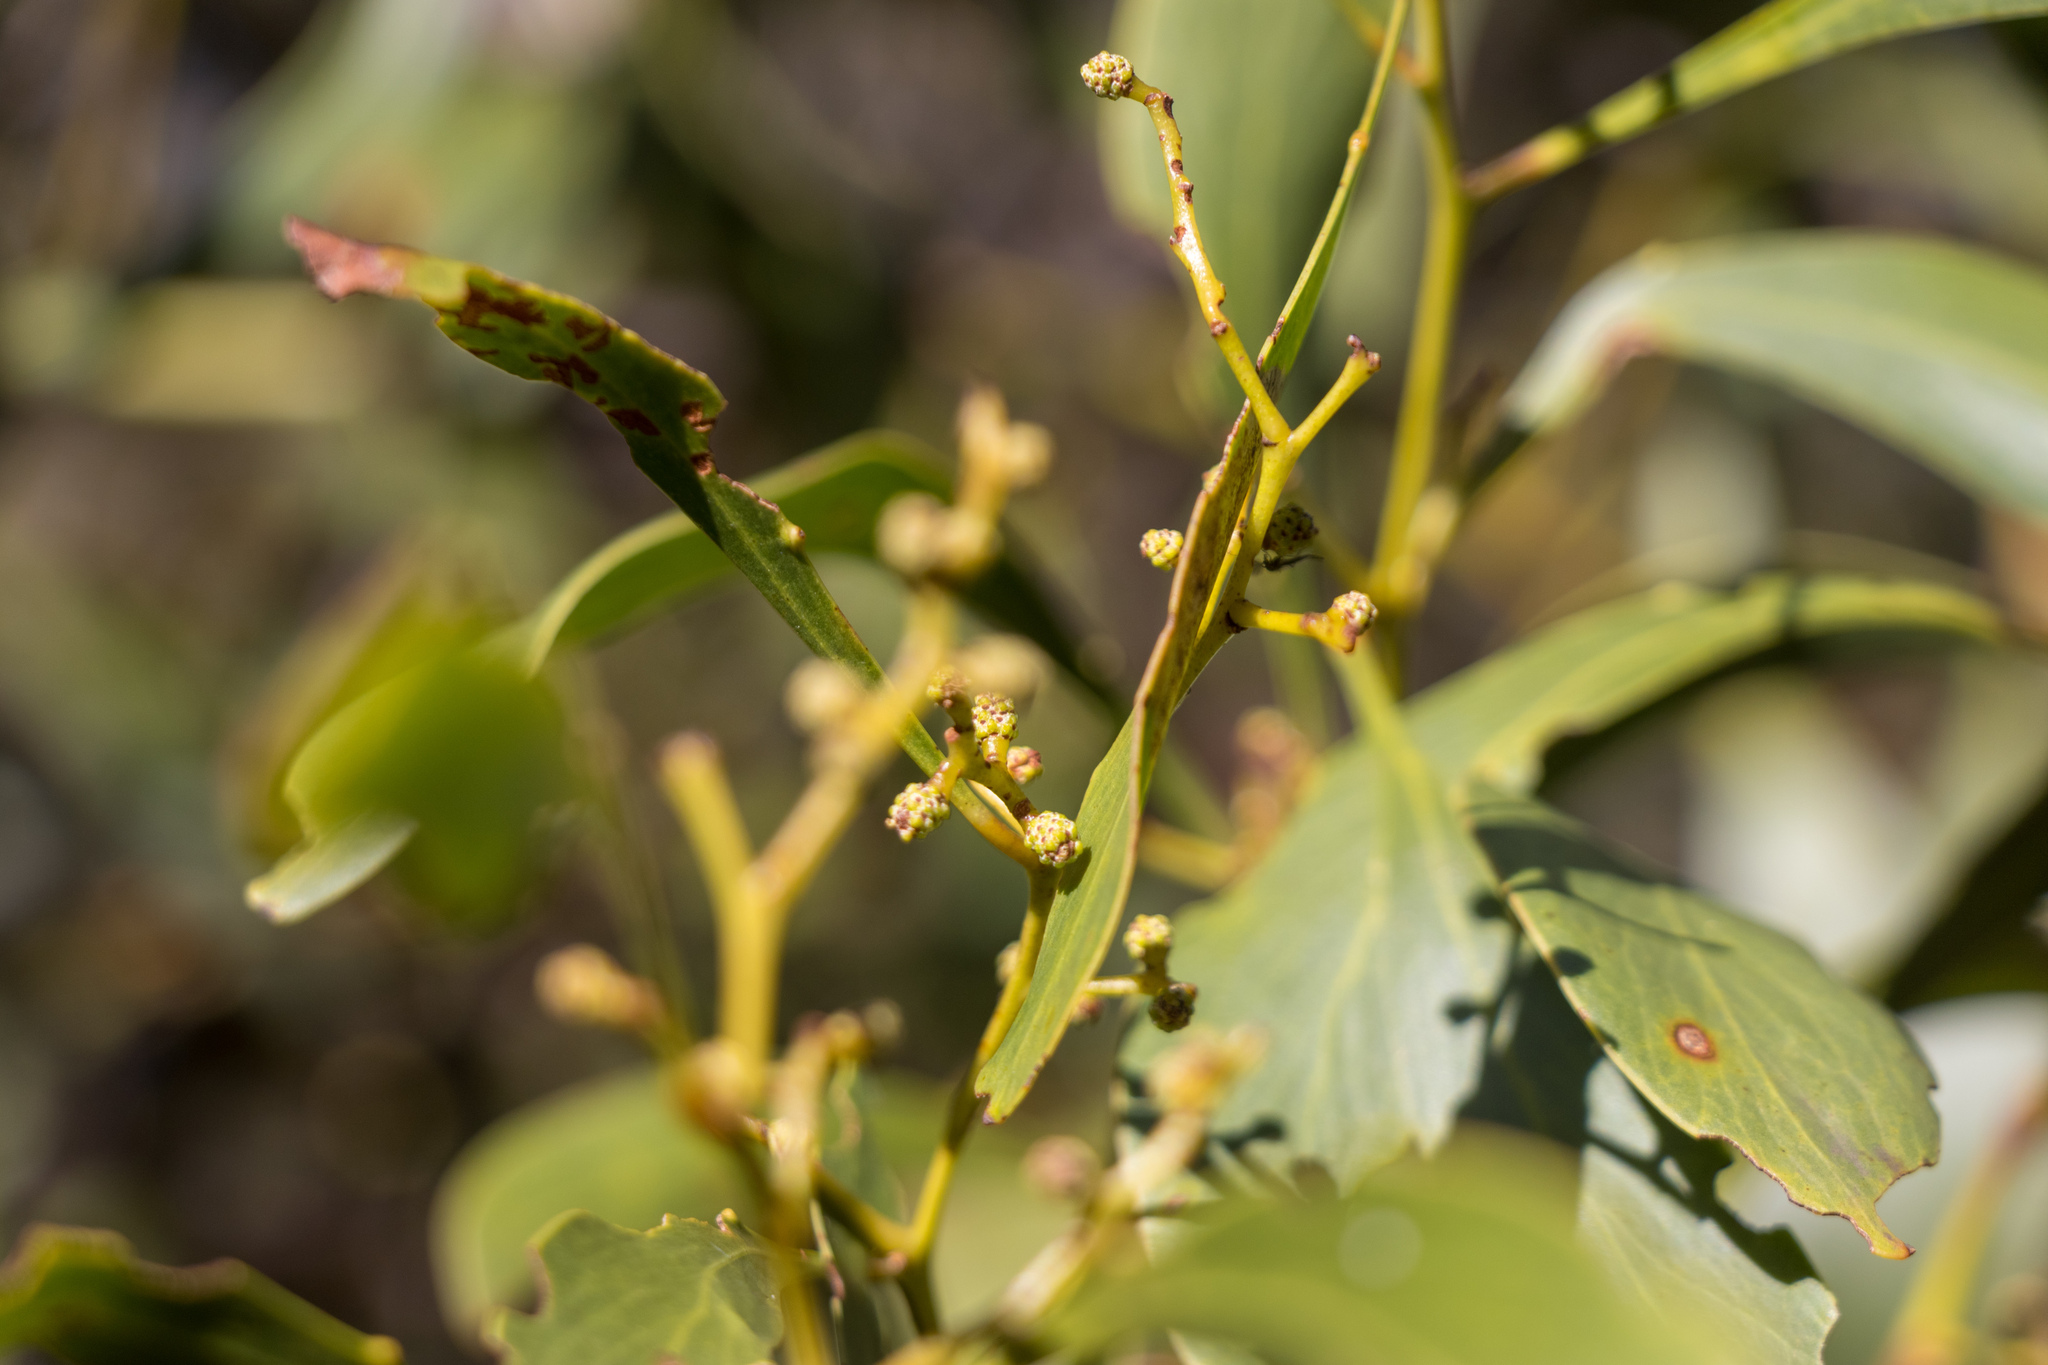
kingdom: Plantae
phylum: Tracheophyta
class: Magnoliopsida
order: Fabales
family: Fabaceae
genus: Acacia
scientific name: Acacia pycnantha
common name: Golden wattle
